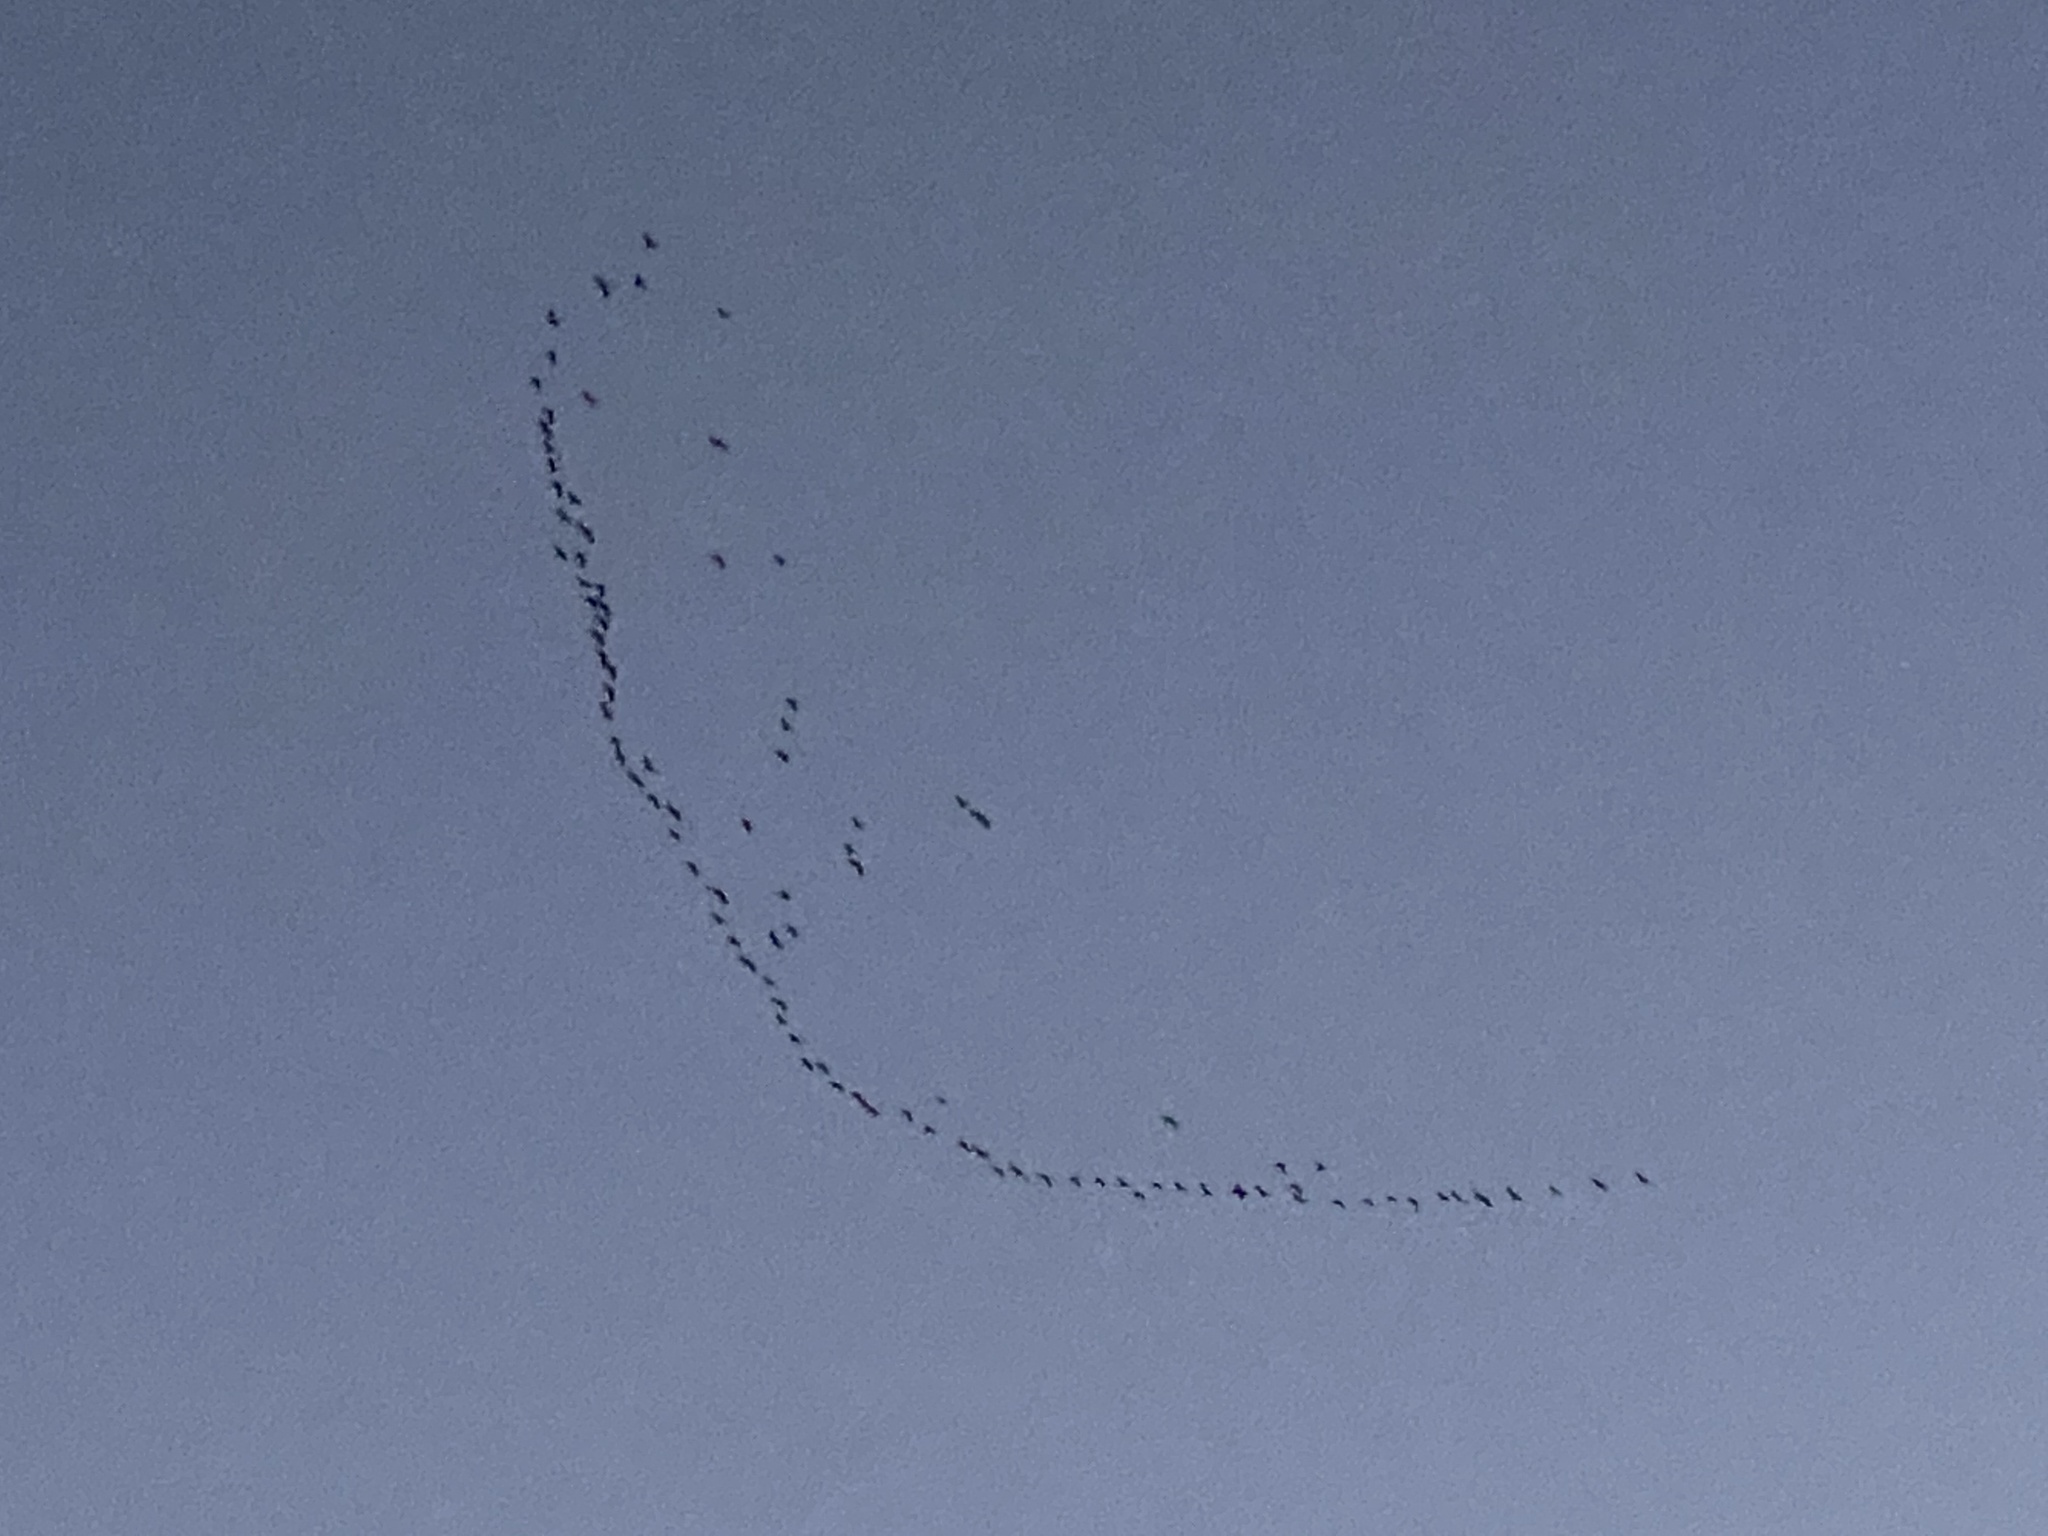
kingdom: Animalia
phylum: Chordata
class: Aves
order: Gruiformes
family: Gruidae
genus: Grus
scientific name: Grus canadensis
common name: Sandhill crane
